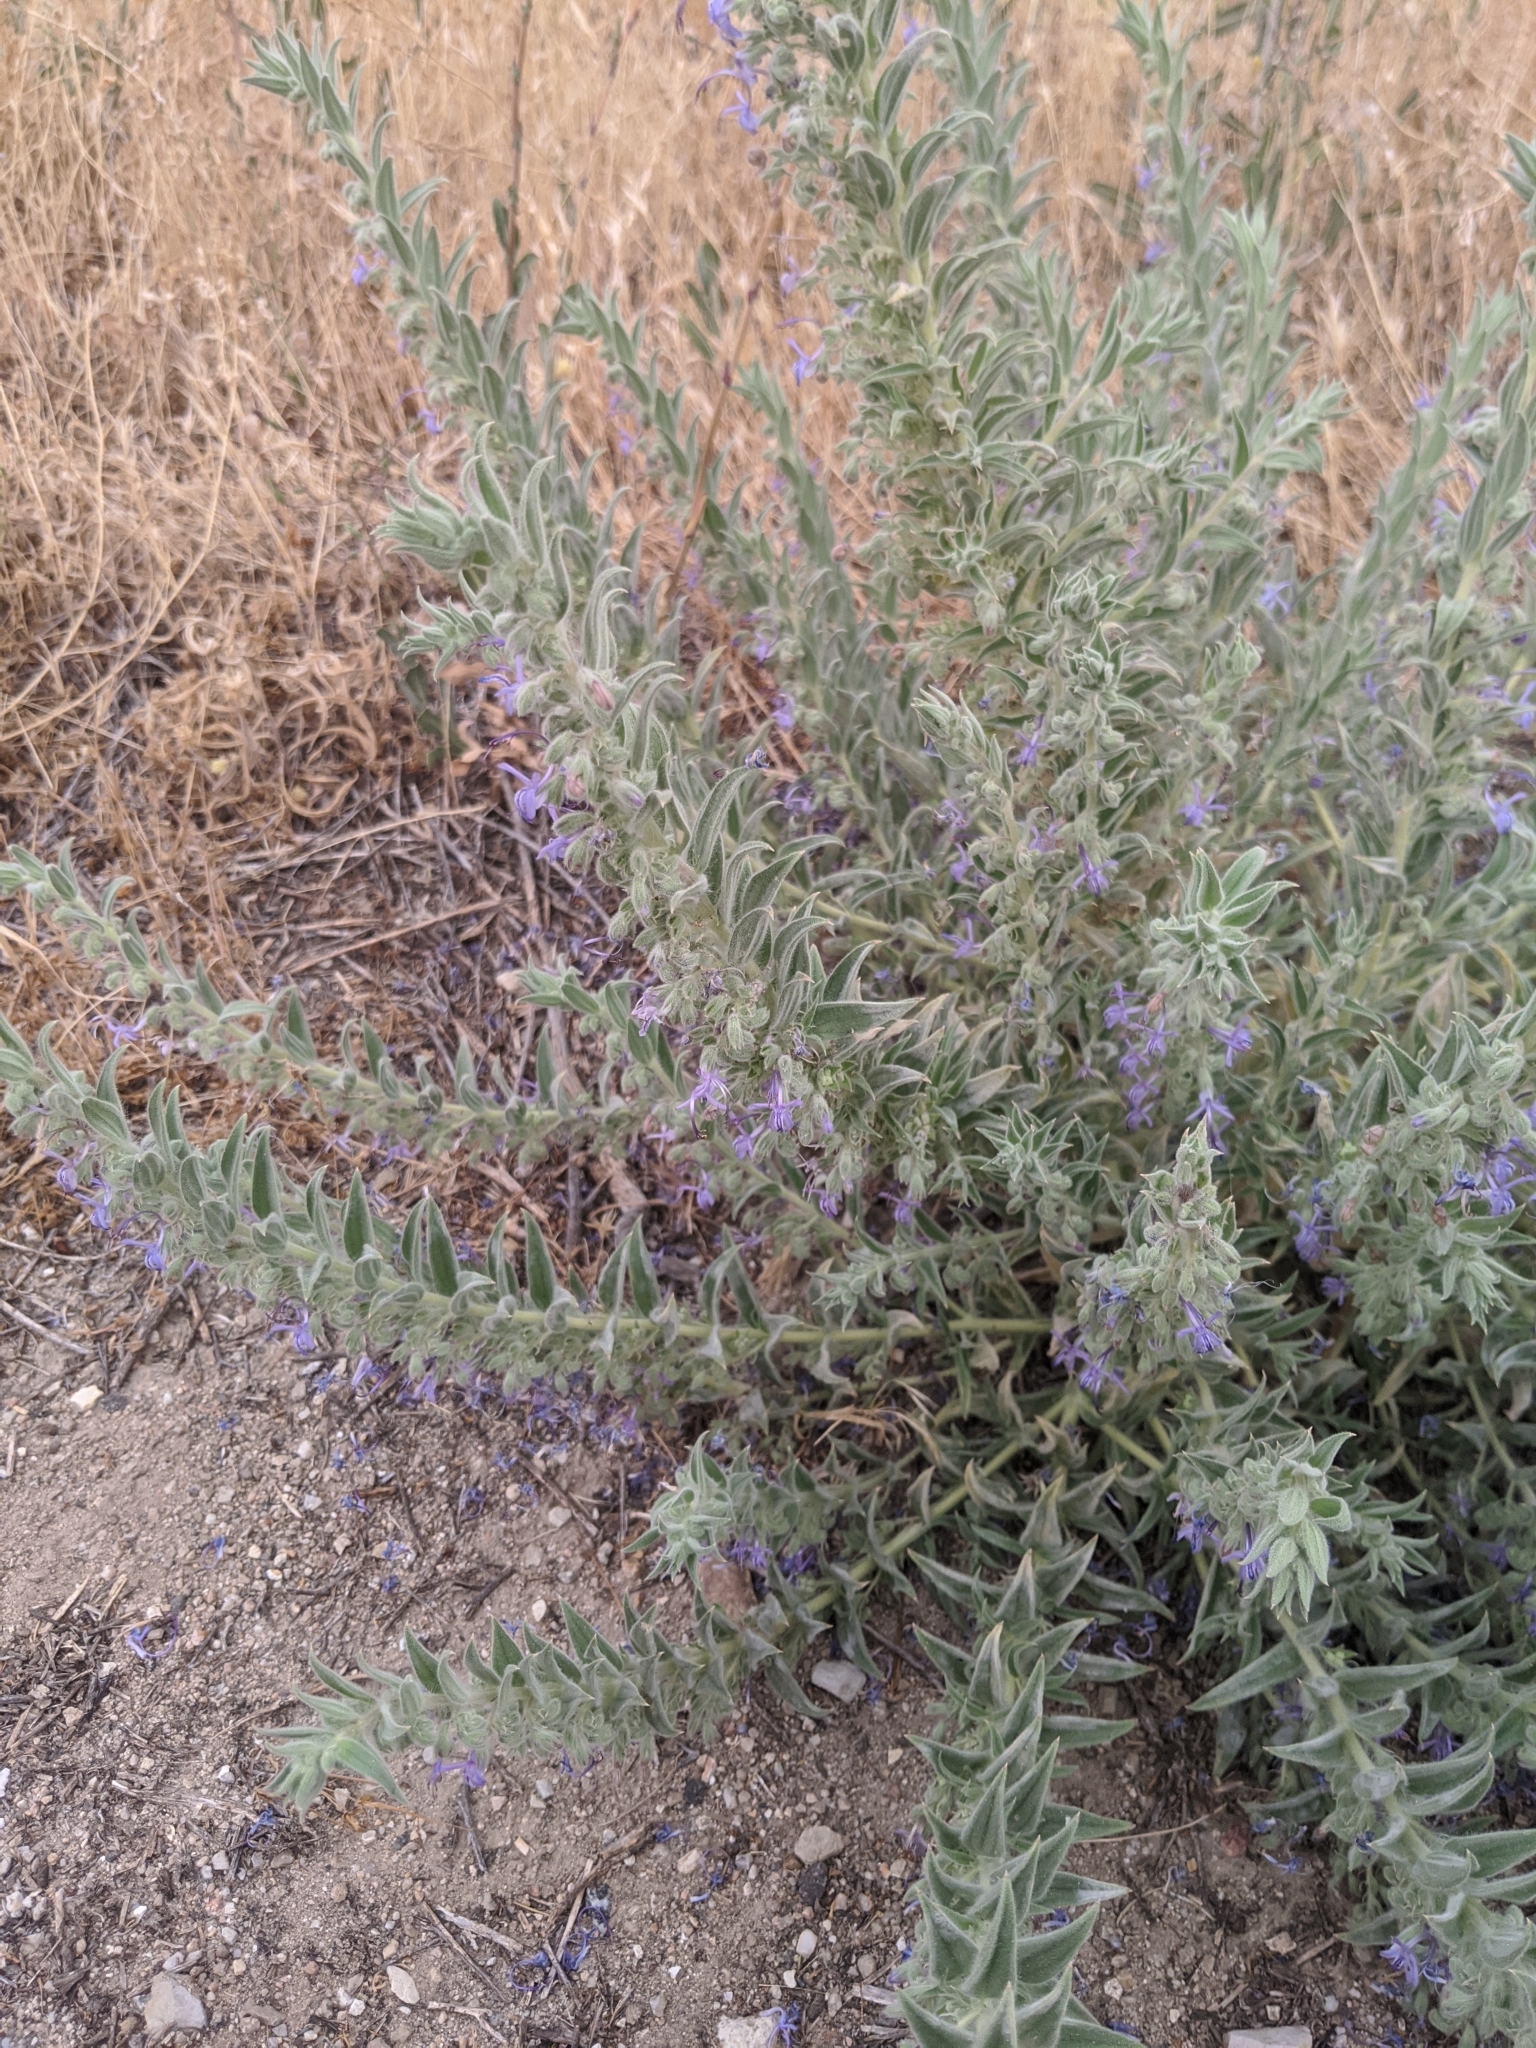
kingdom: Plantae
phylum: Tracheophyta
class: Magnoliopsida
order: Lamiales
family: Lamiaceae
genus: Trichostema
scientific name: Trichostema lanceolatum
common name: Vinegar-weed
